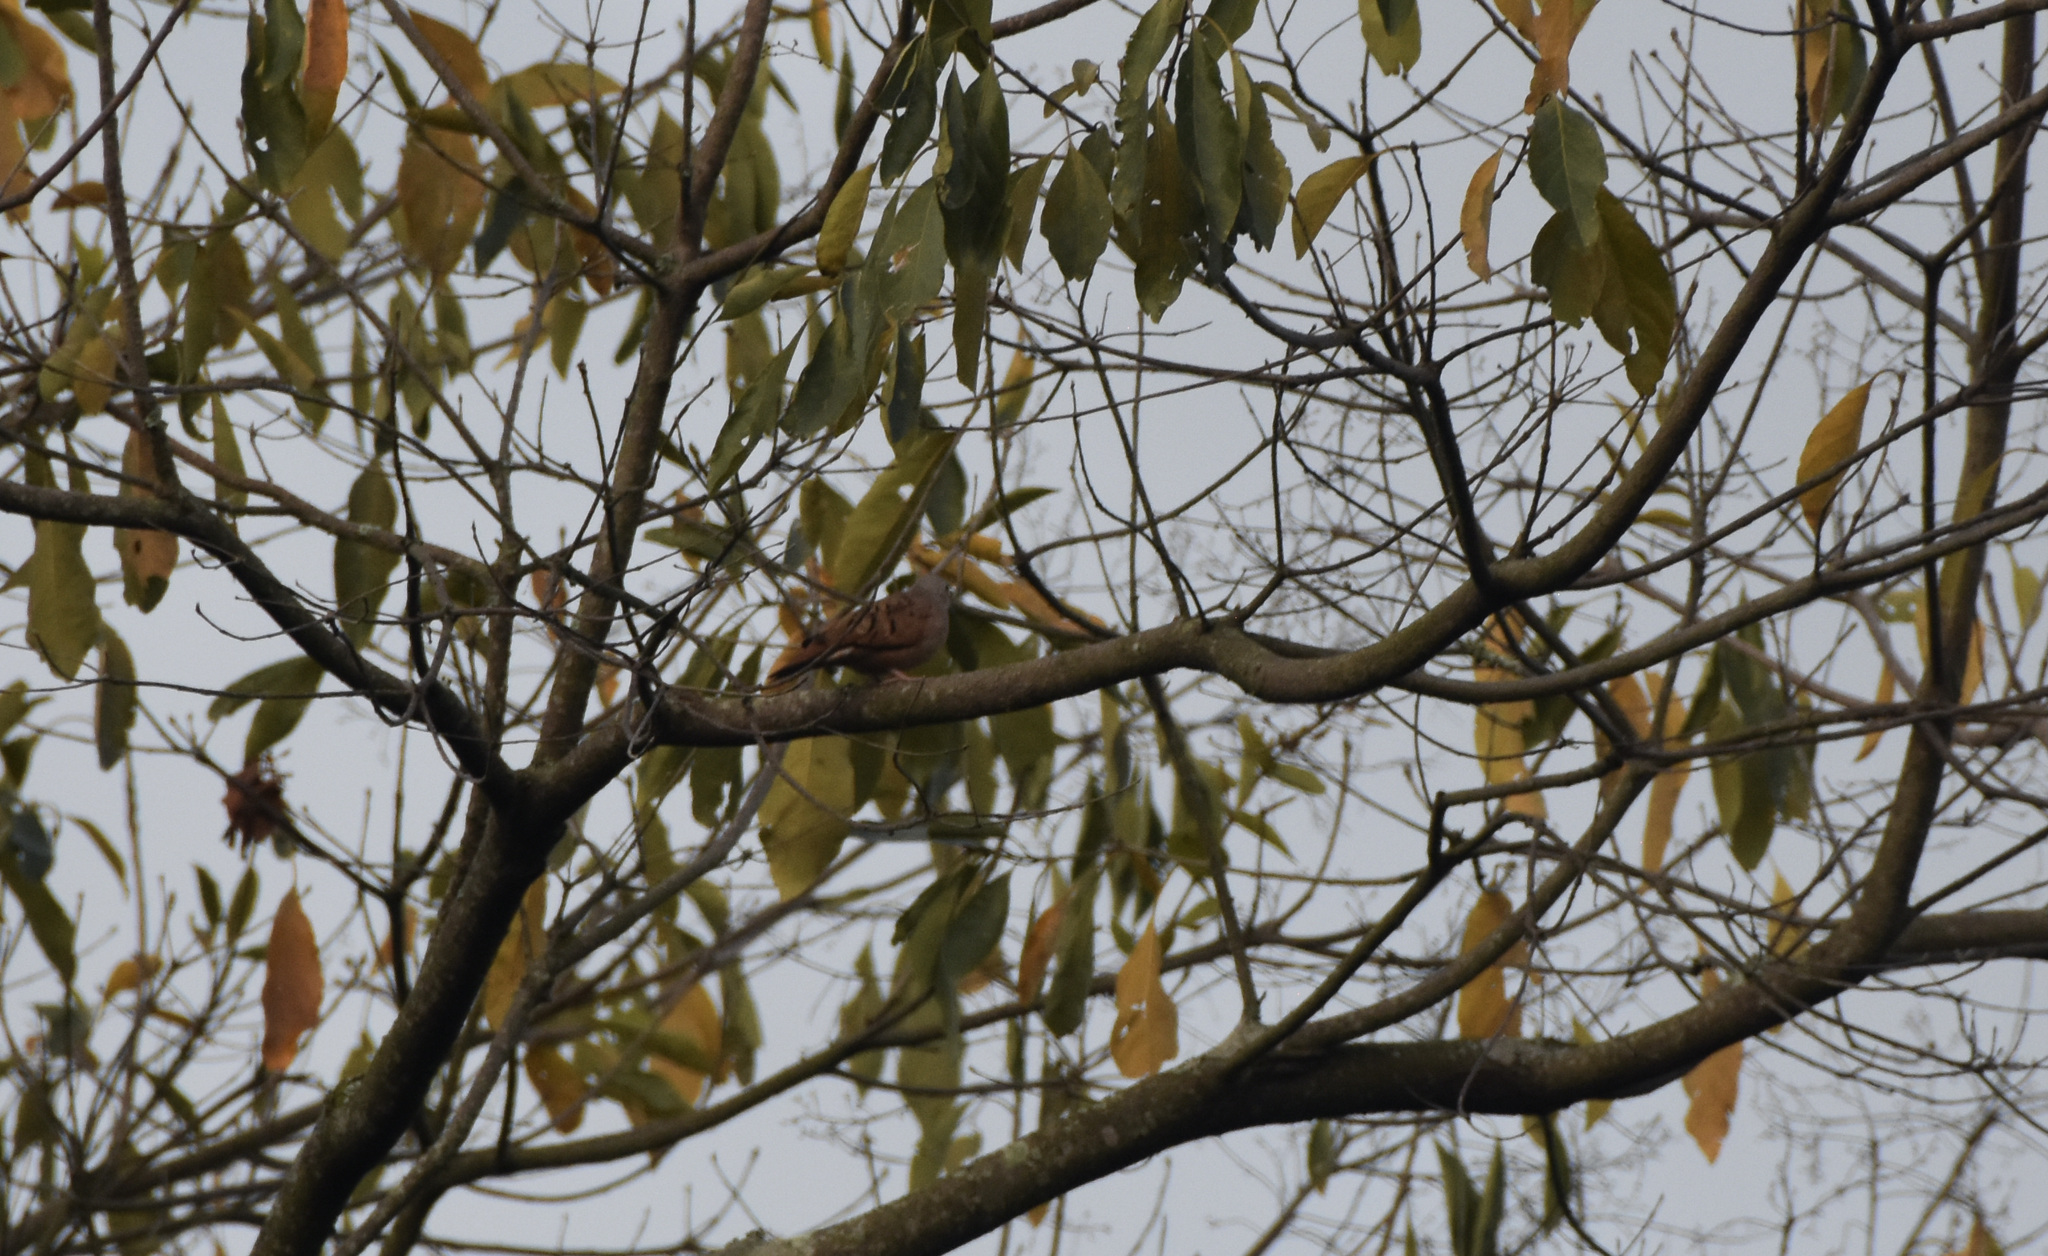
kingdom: Animalia
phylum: Chordata
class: Aves
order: Columbiformes
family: Columbidae
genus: Columbina
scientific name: Columbina talpacoti
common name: Ruddy ground dove
